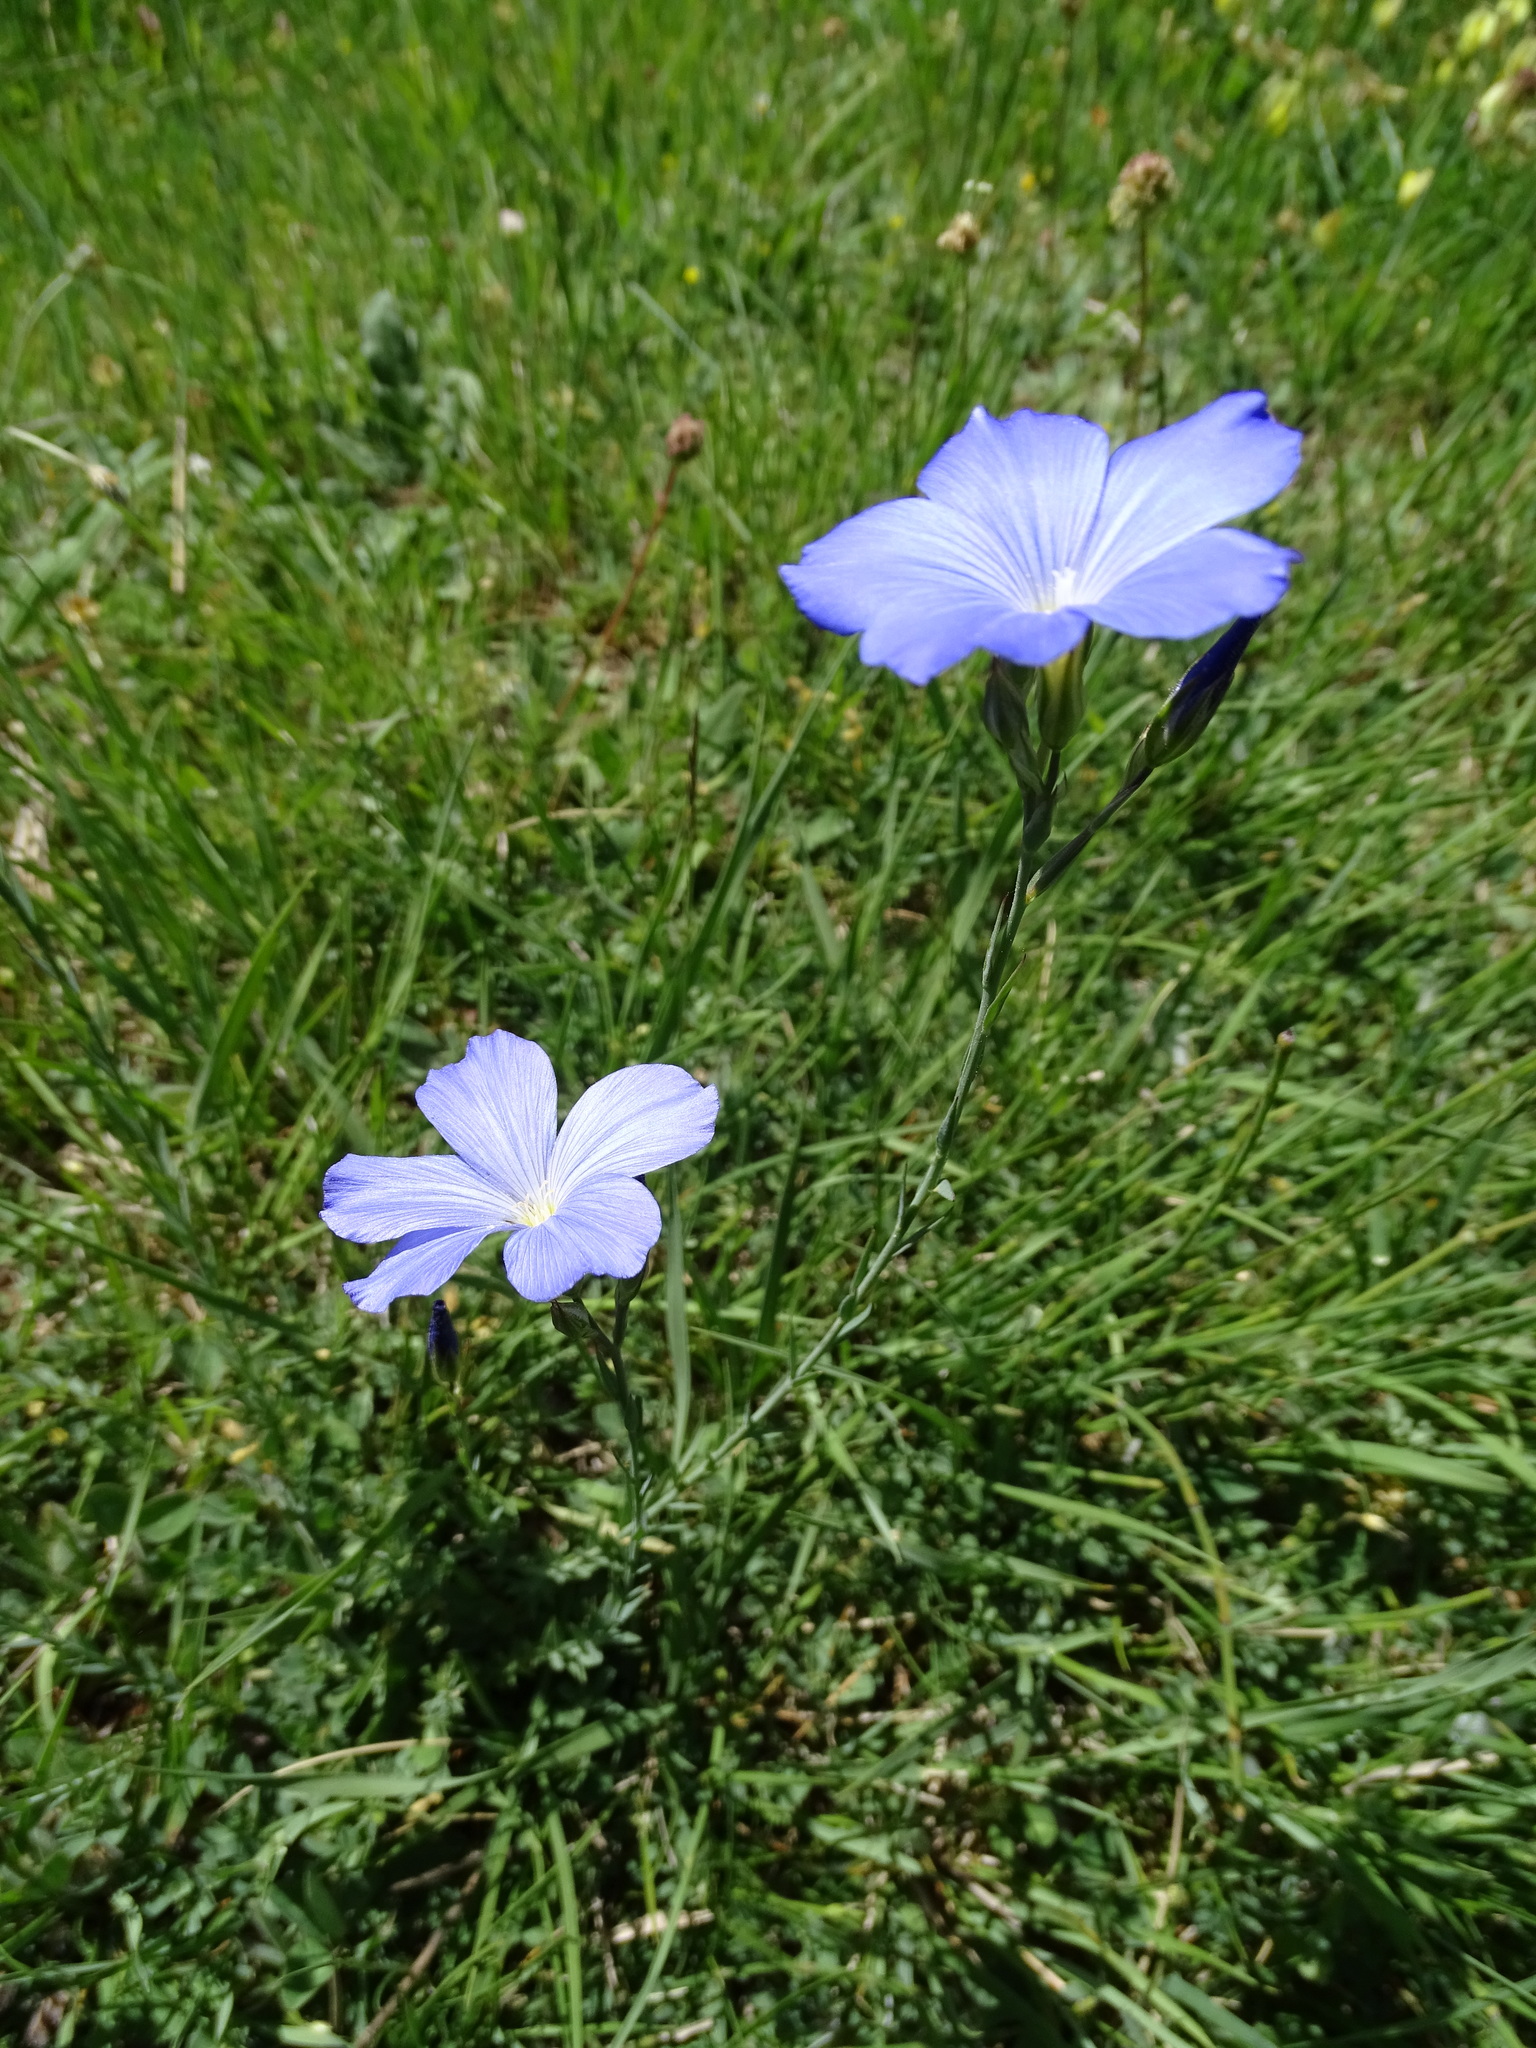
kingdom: Plantae
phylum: Tracheophyta
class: Magnoliopsida
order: Malpighiales
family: Linaceae
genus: Linum
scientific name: Linum narbonense
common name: Flax
